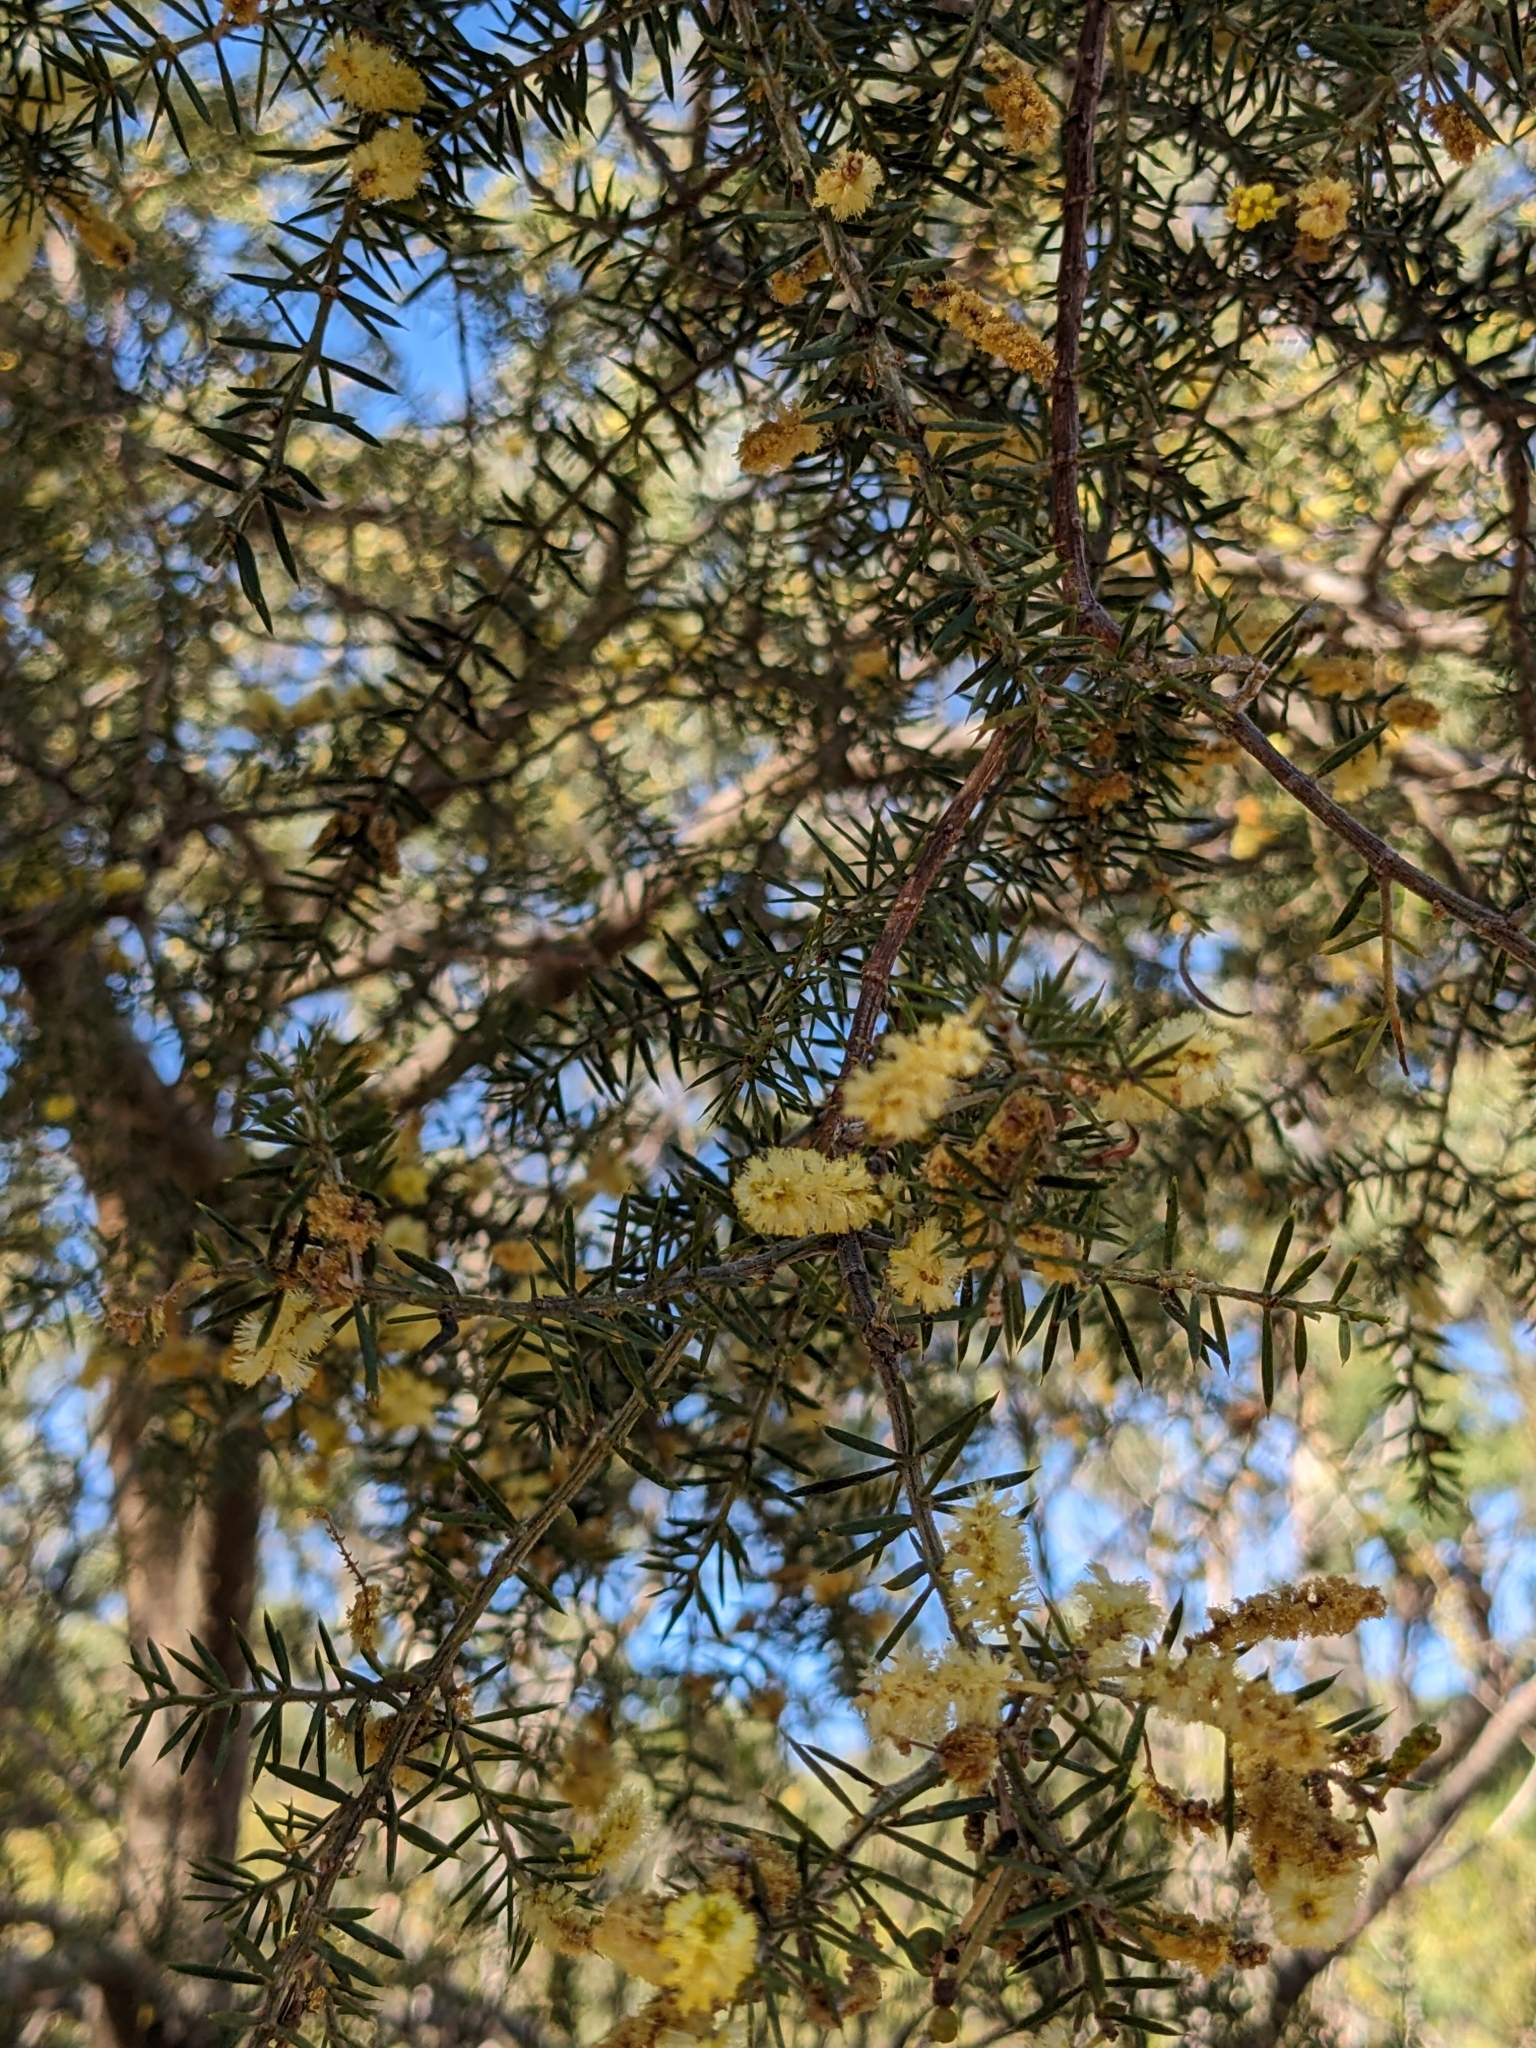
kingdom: Plantae
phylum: Tracheophyta
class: Magnoliopsida
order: Fabales
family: Fabaceae
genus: Acacia
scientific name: Acacia verticillata
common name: Prickly moses
